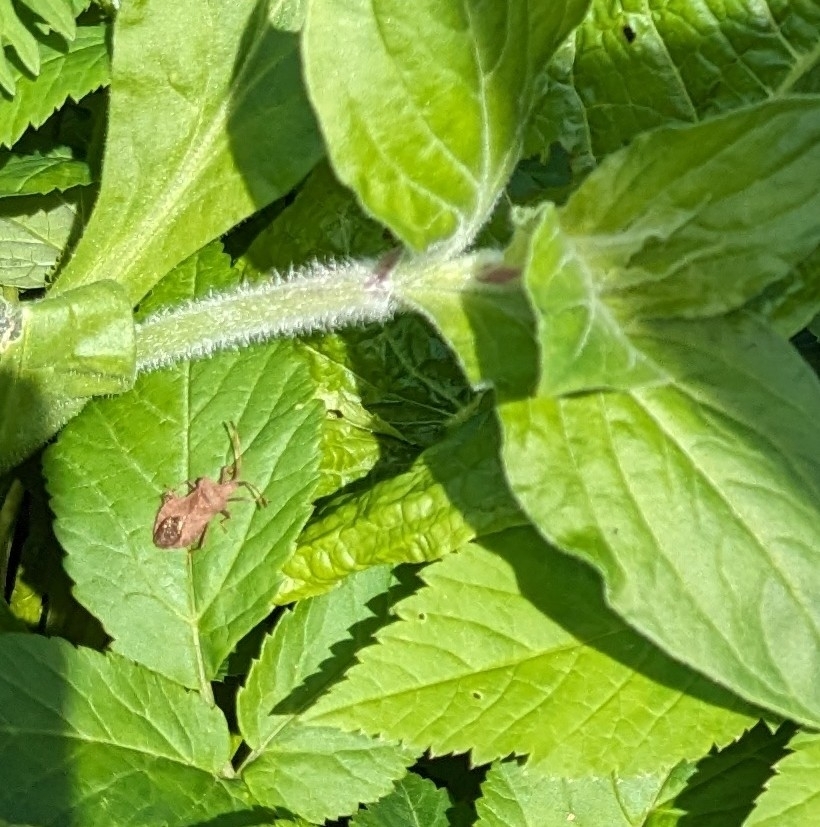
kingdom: Animalia
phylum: Arthropoda
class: Insecta
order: Hemiptera
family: Coreidae
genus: Coreus
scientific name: Coreus marginatus
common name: Dock bug
